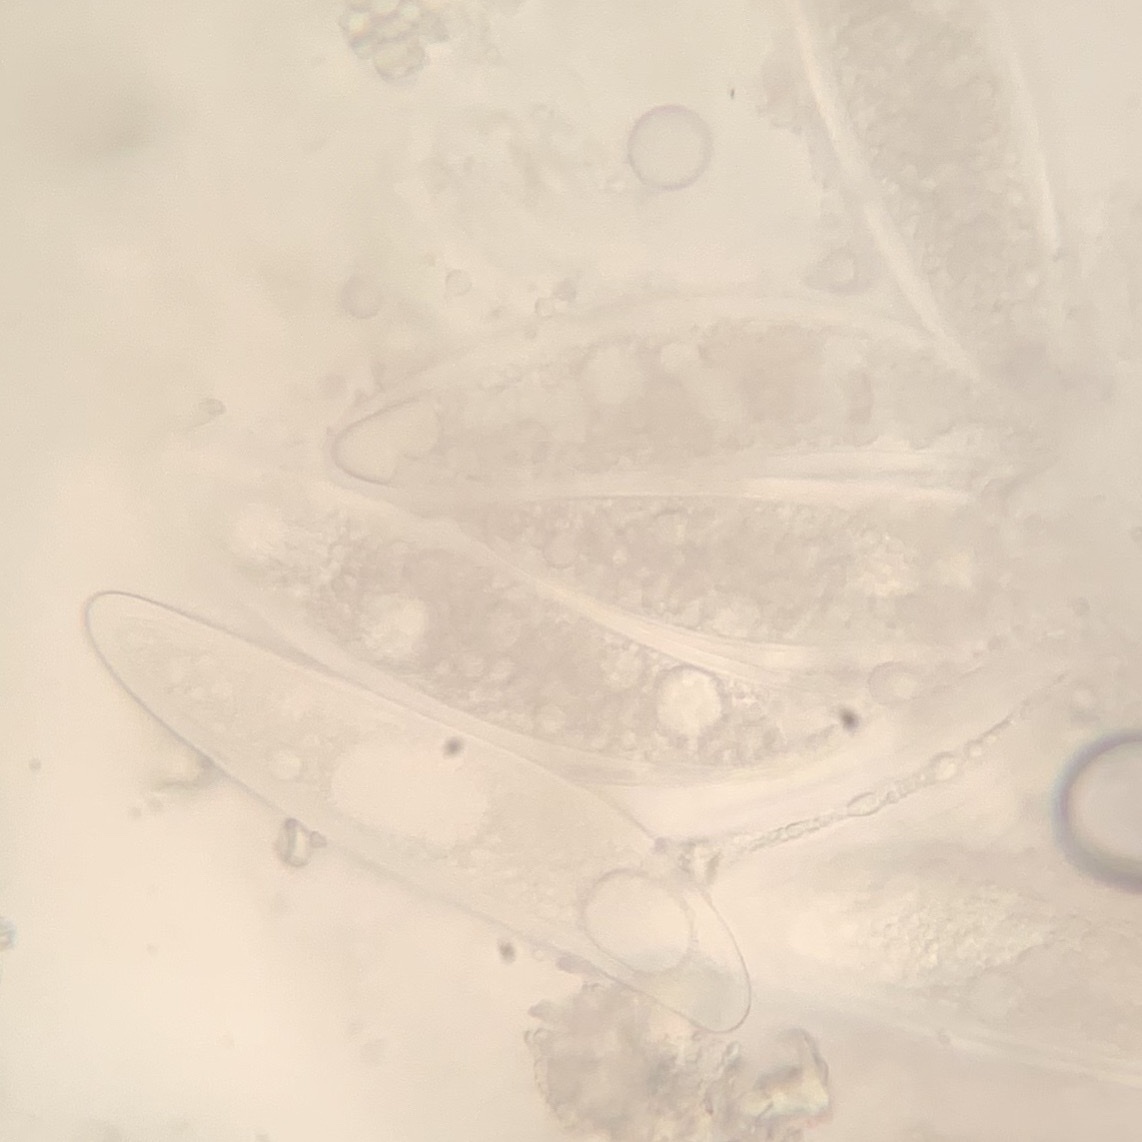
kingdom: Fungi
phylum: Ascomycota
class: Lecanoromycetes
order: Pertusariales
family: Pertusariaceae
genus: Pertusaria
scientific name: Pertusaria sinusmexicani
